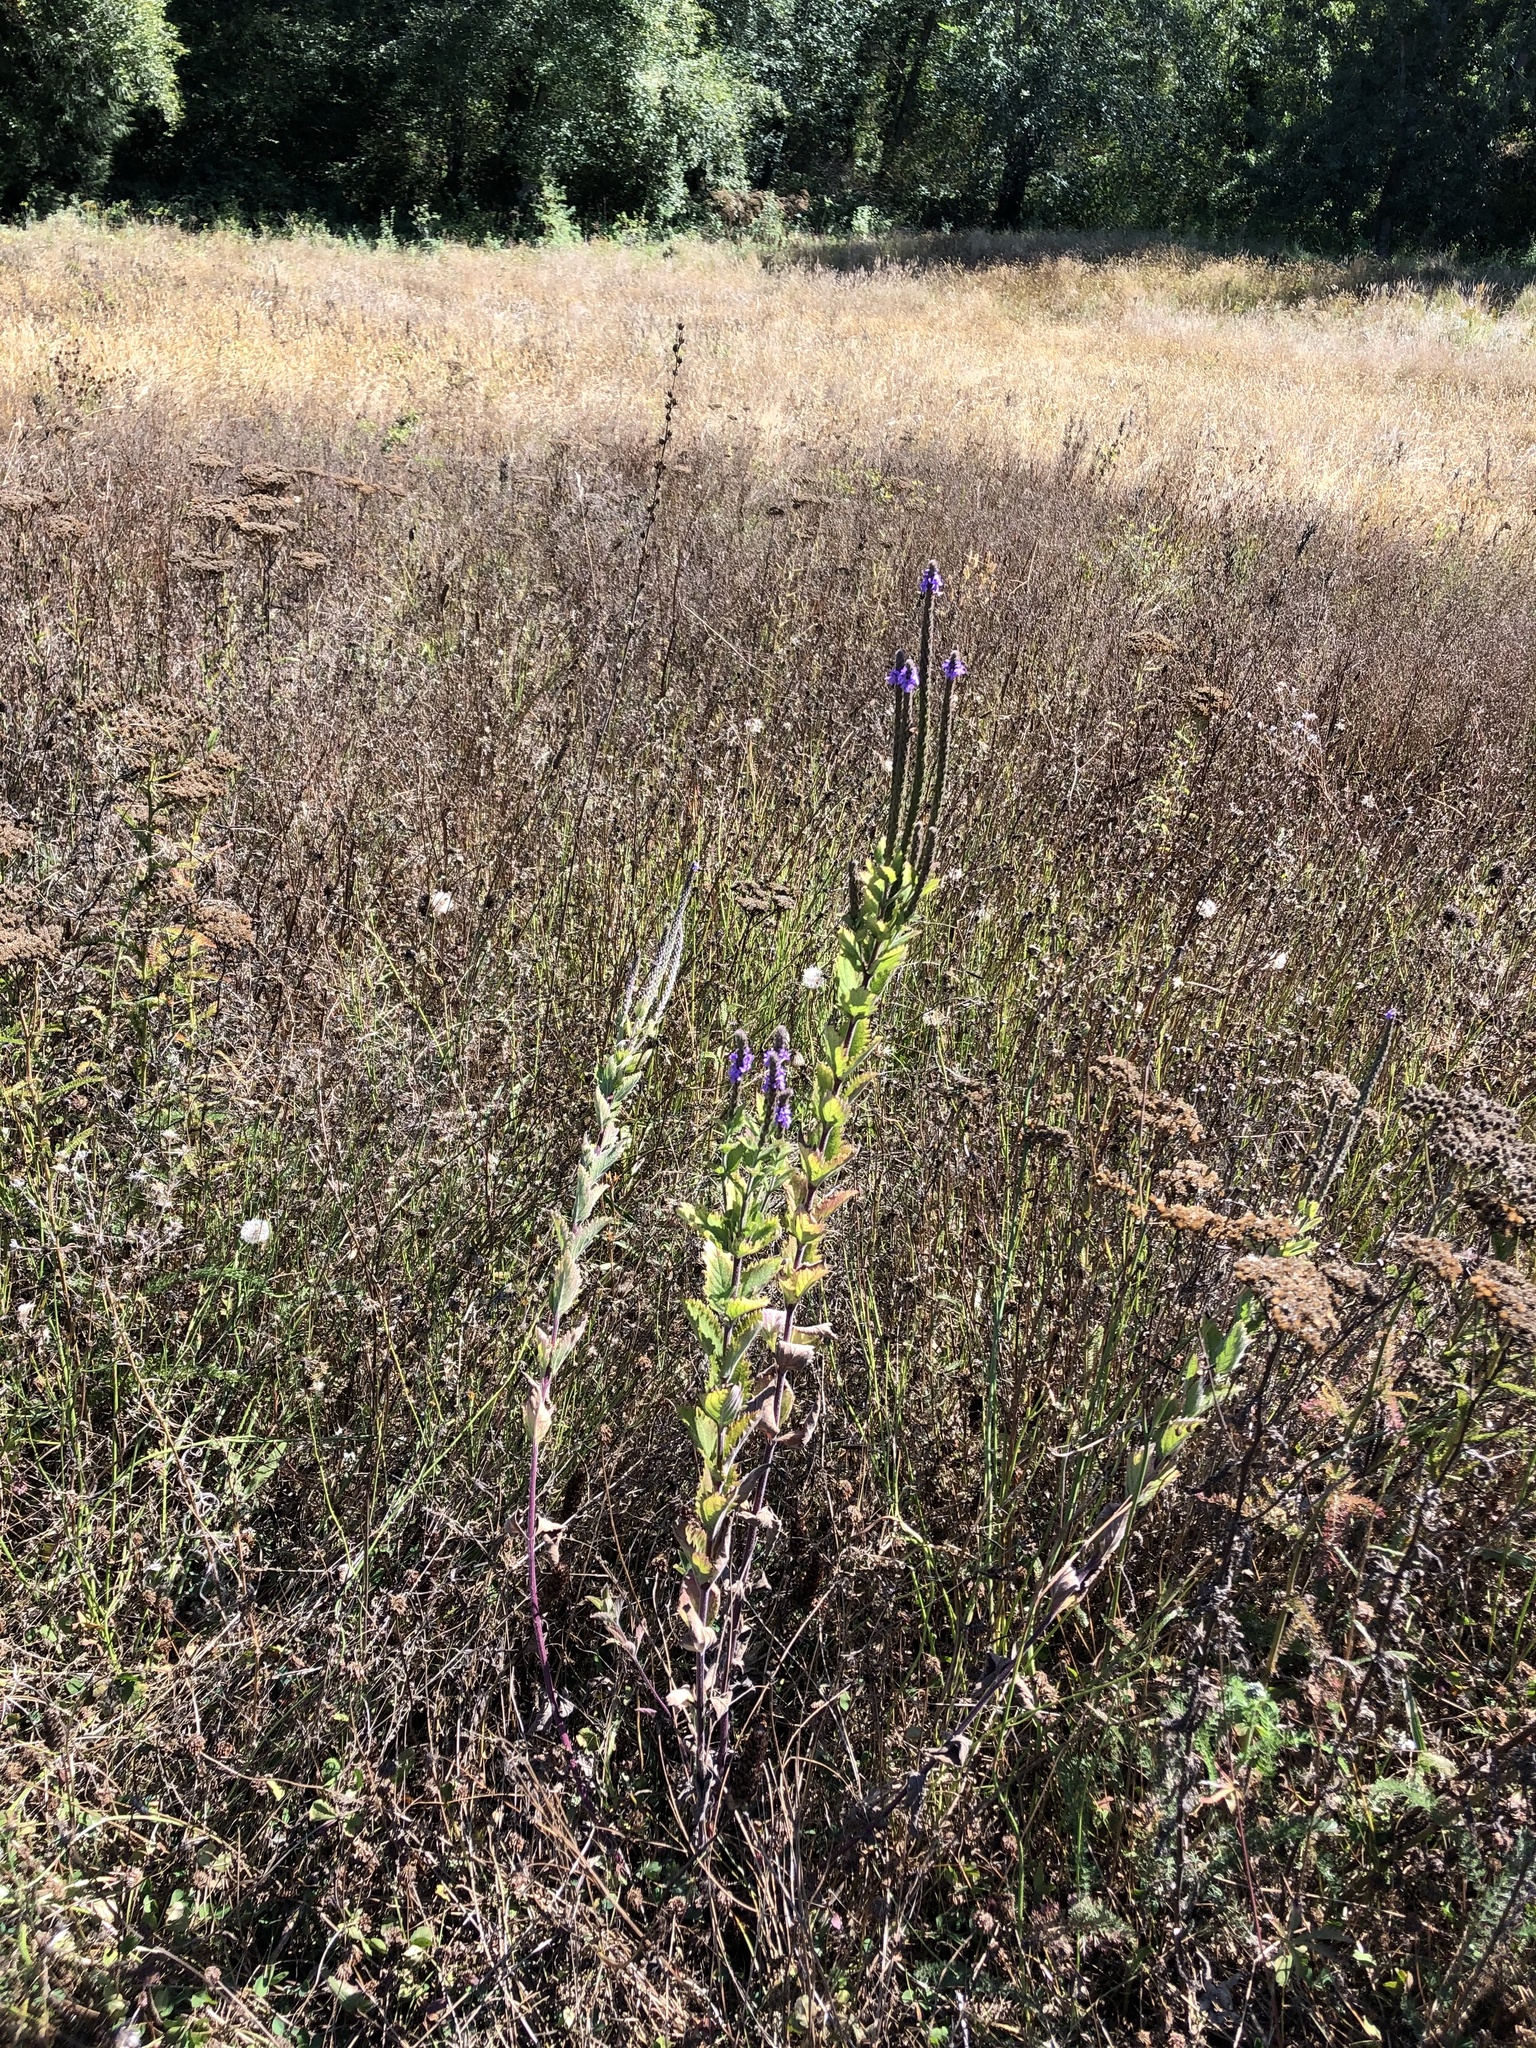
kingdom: Plantae
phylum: Tracheophyta
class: Magnoliopsida
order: Lamiales
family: Verbenaceae
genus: Verbena
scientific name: Verbena stricta
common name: Hoary vervain
